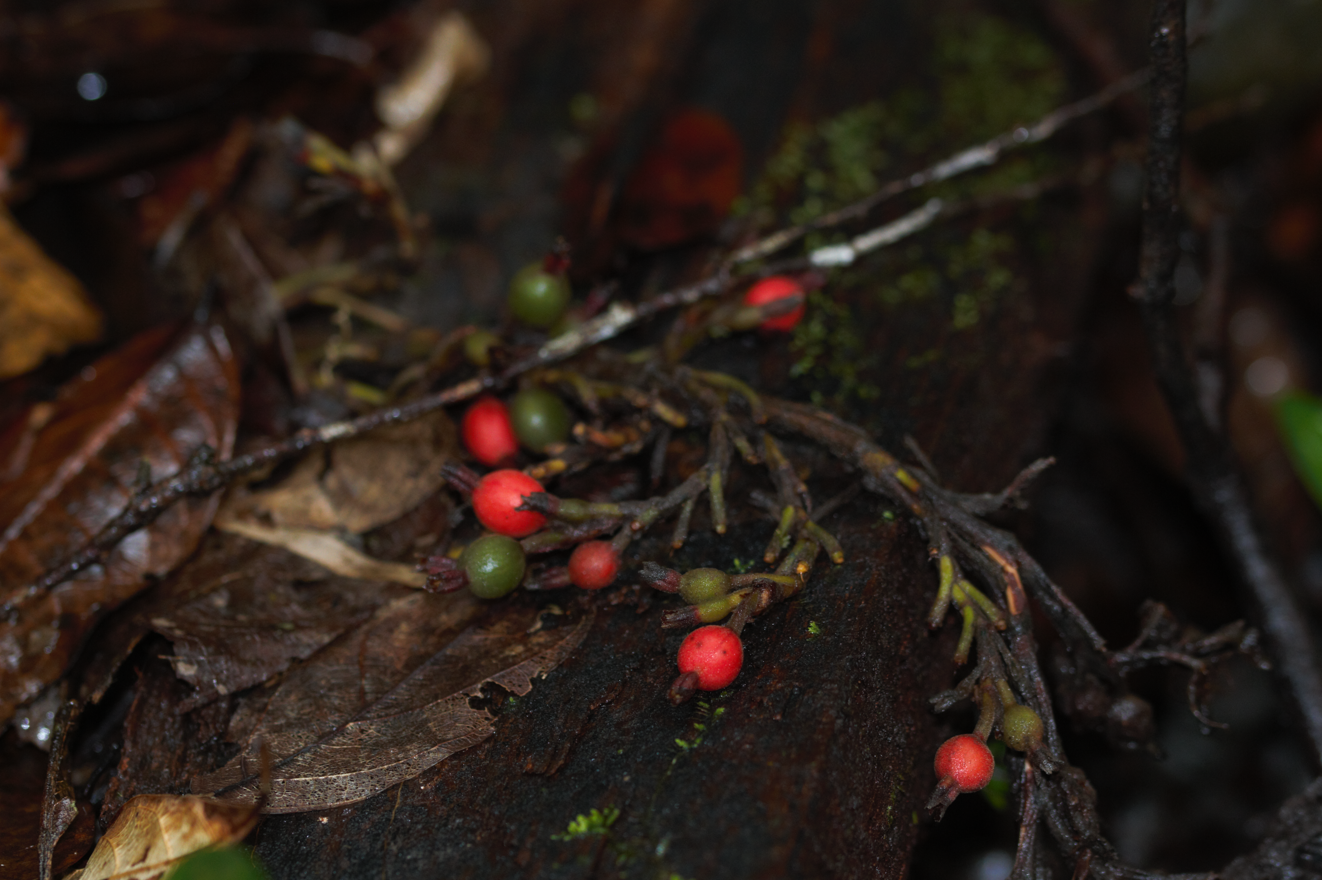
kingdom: Plantae
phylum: Tracheophyta
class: Liliopsida
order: Zingiberales
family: Zingiberaceae
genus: Renealmia
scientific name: Renealmia orinocensis
